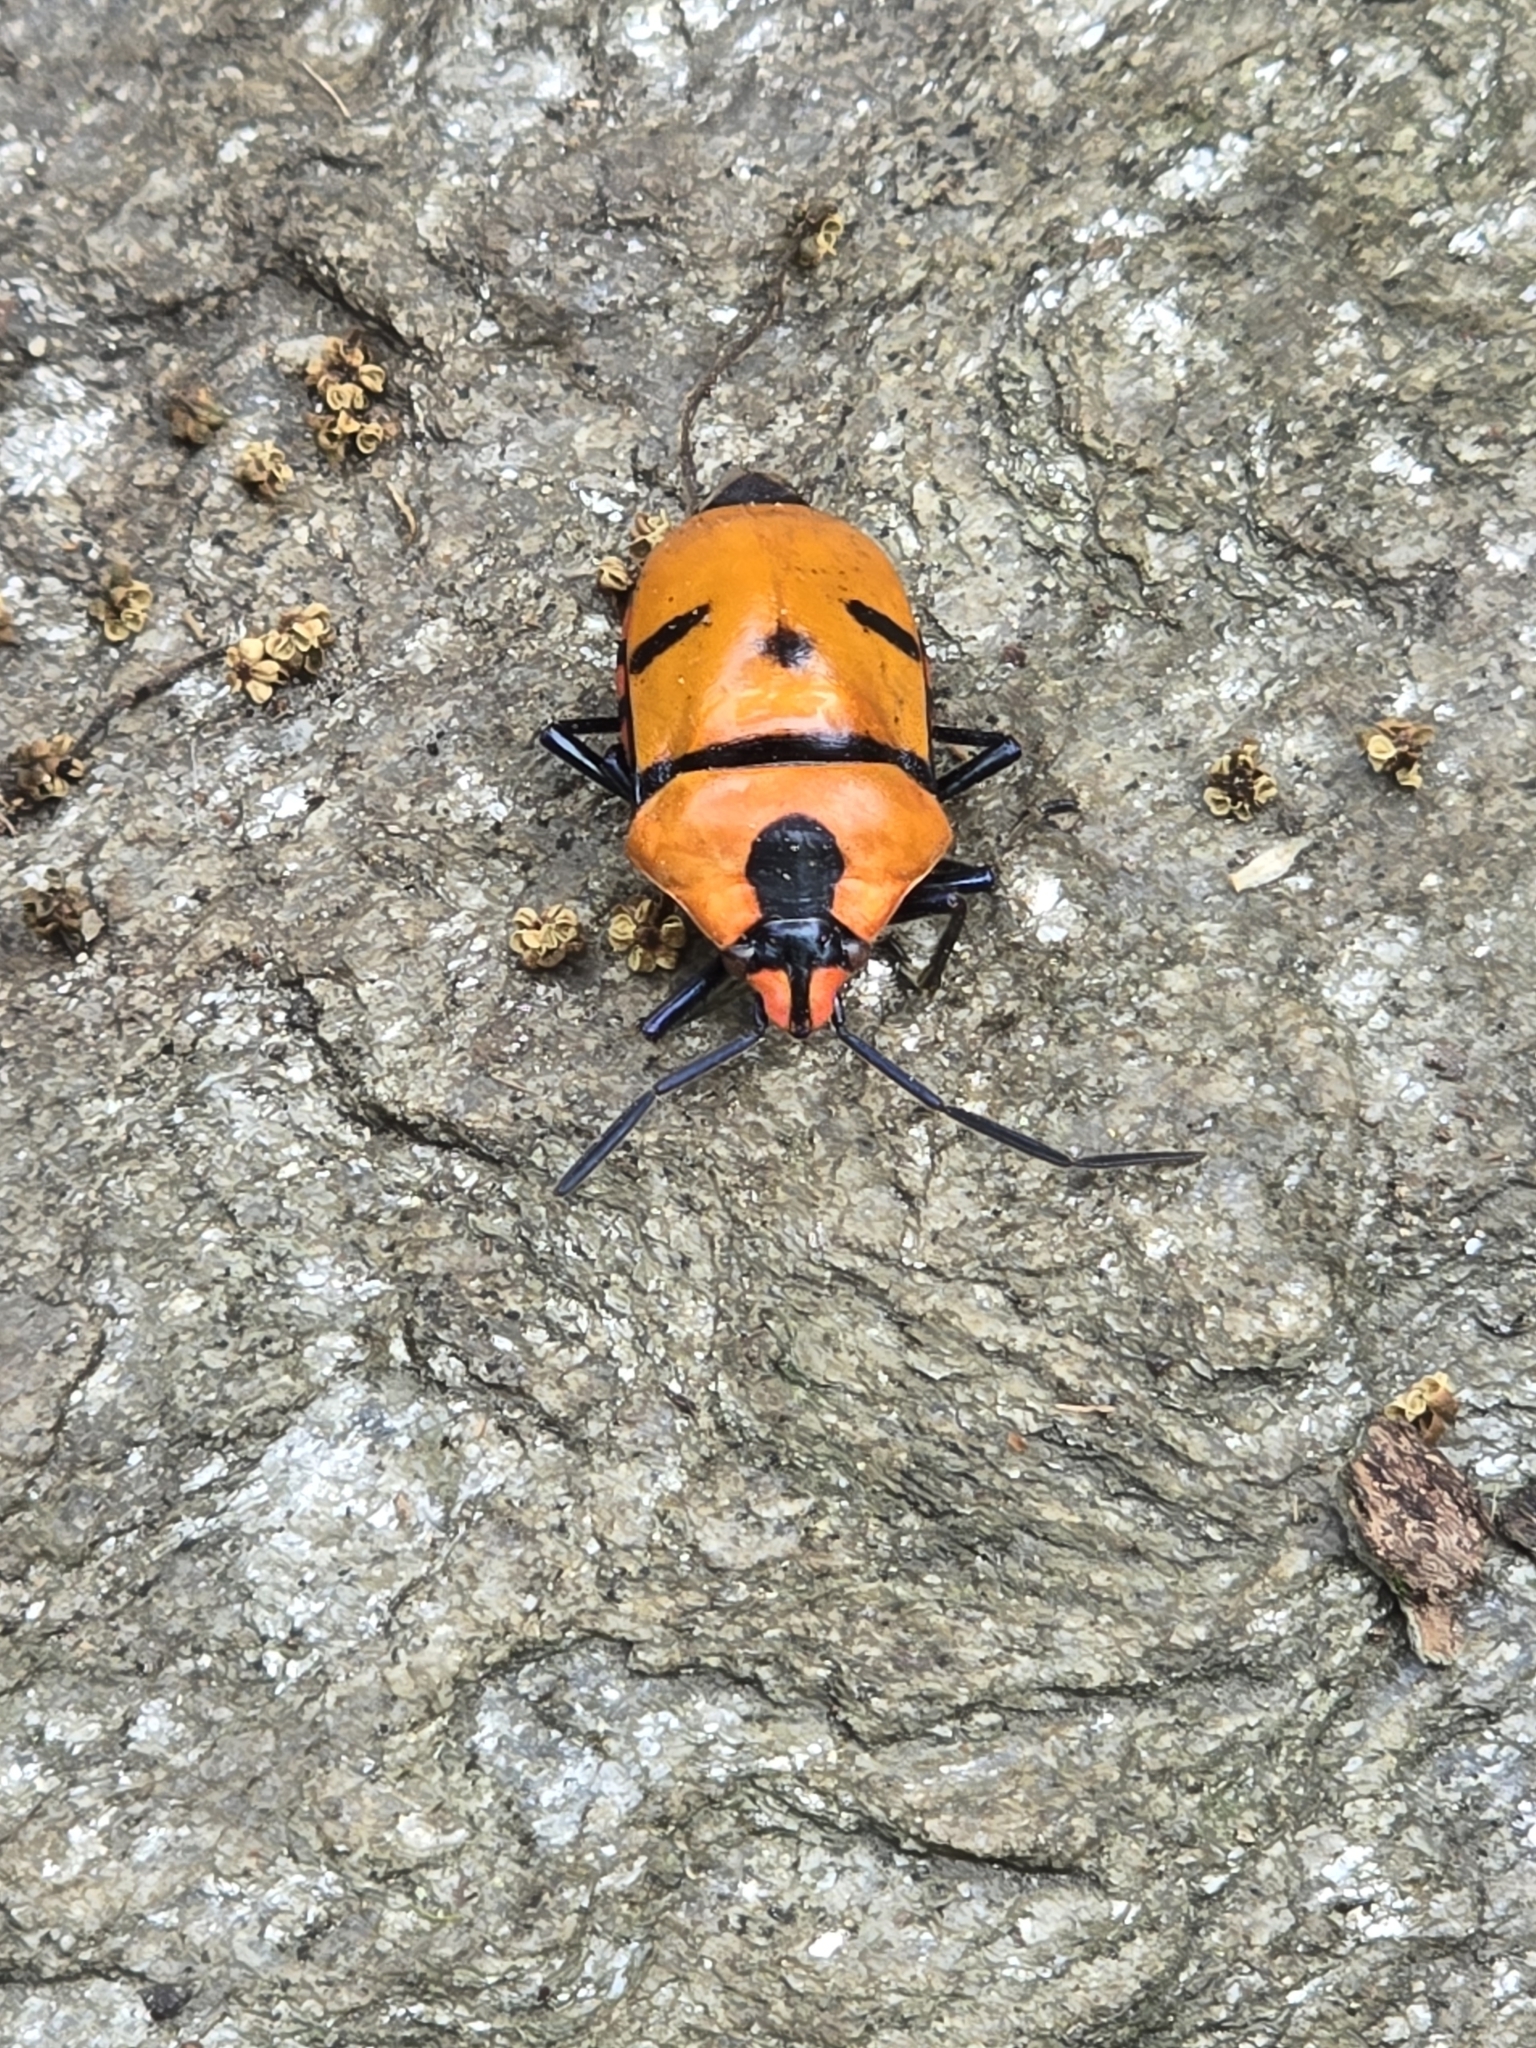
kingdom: Animalia
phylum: Arthropoda
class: Insecta
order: Hemiptera
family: Scutelleridae
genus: Eucorysses
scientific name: Eucorysses grandis
